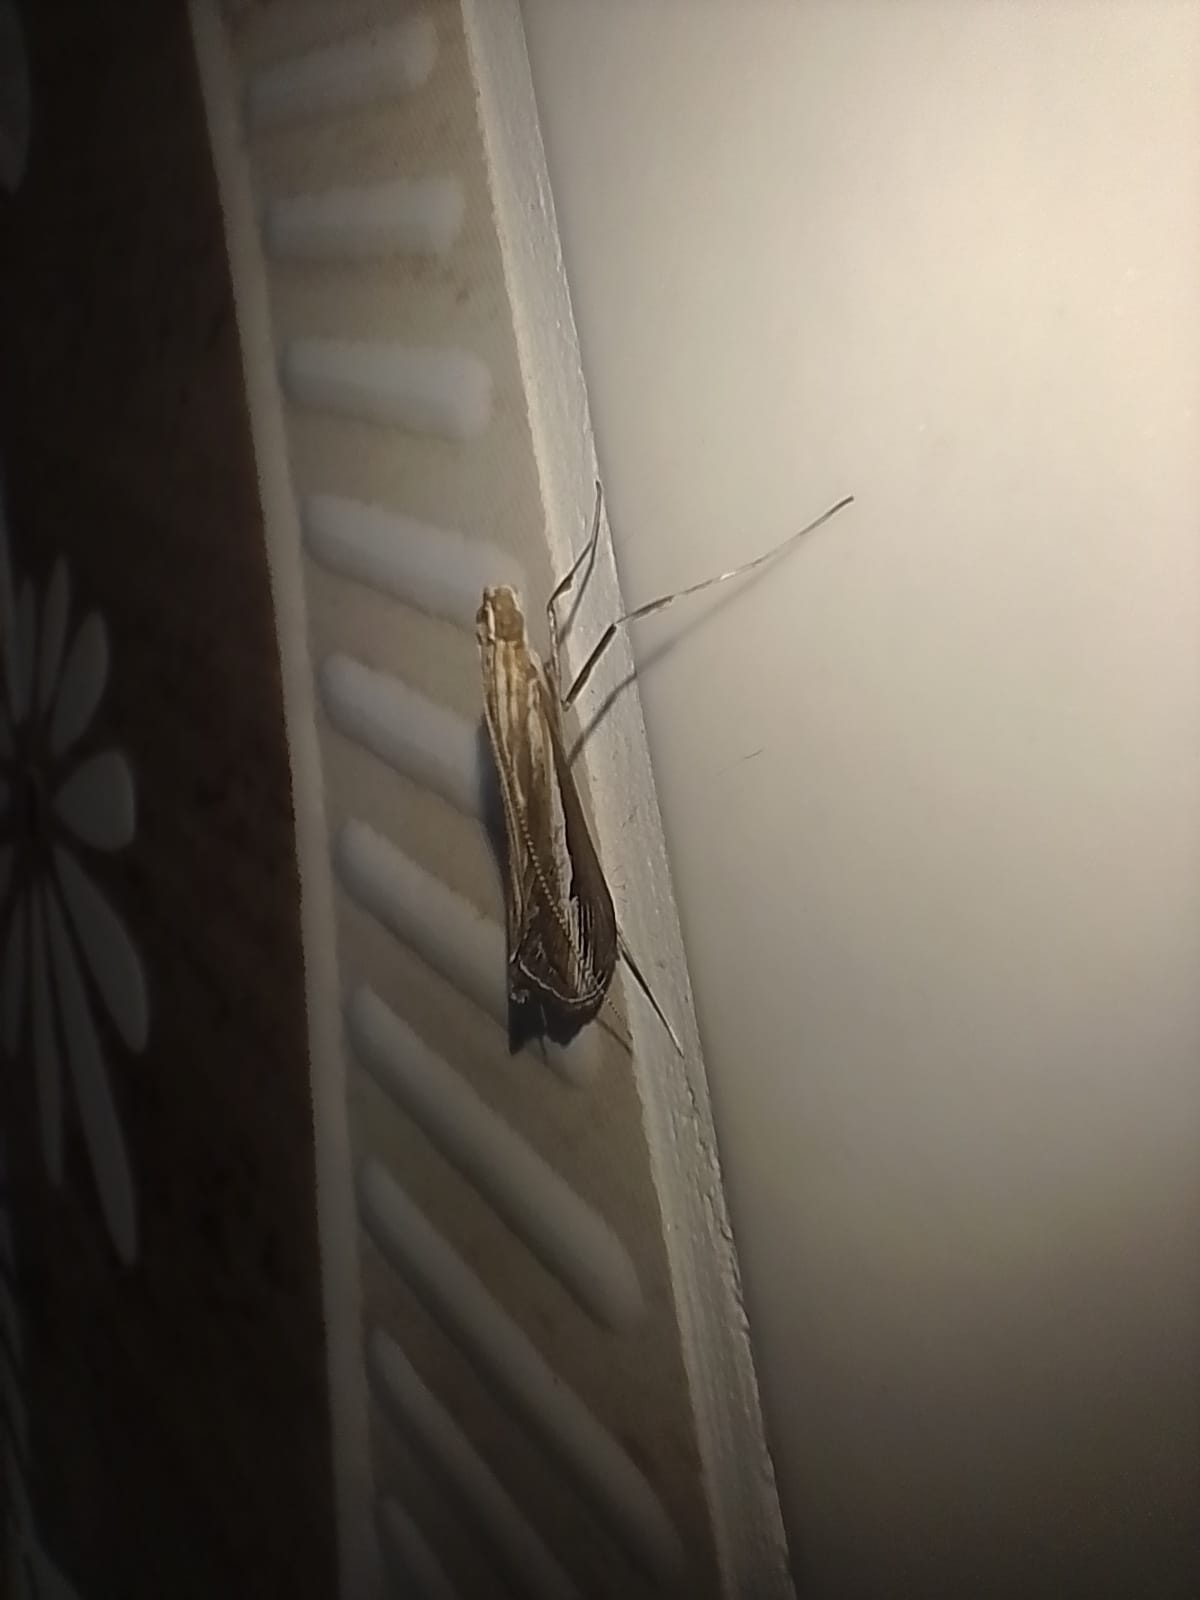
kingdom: Animalia
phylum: Arthropoda
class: Insecta
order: Lepidoptera
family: Crambidae
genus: Euclasta
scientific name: Euclasta splendidalis
